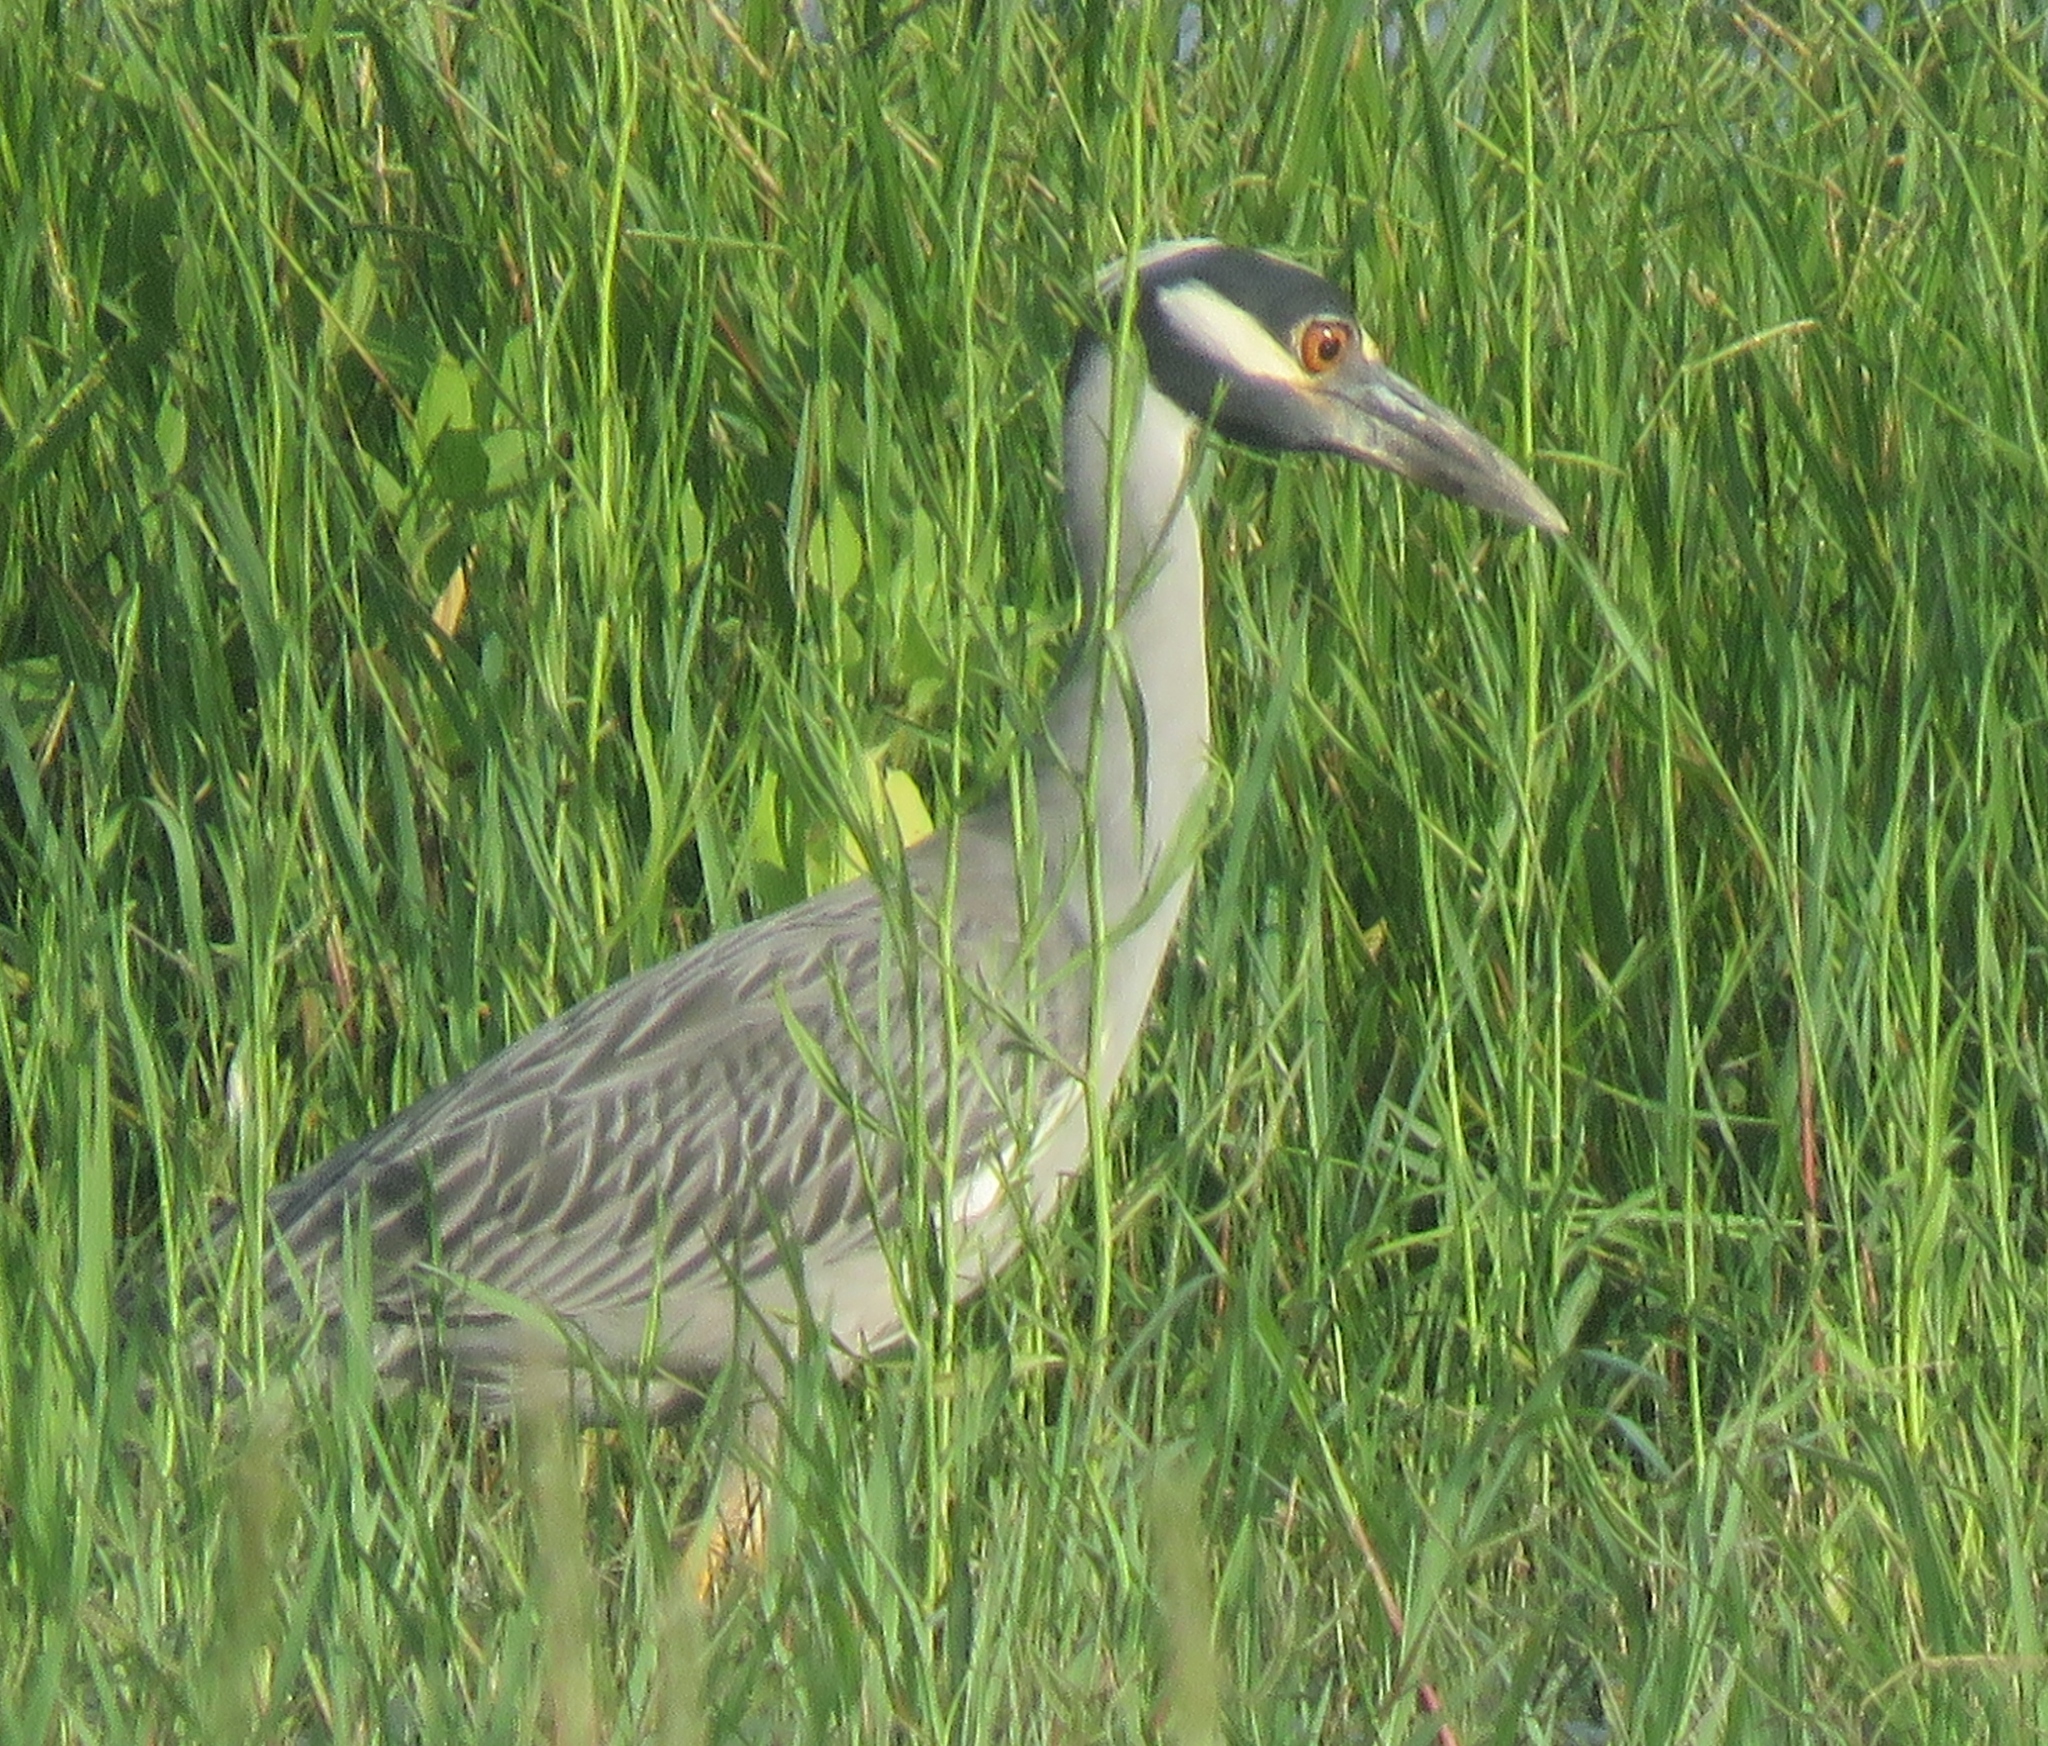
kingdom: Animalia
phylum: Chordata
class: Aves
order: Pelecaniformes
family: Ardeidae
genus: Nyctanassa
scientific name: Nyctanassa violacea
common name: Yellow-crowned night heron
